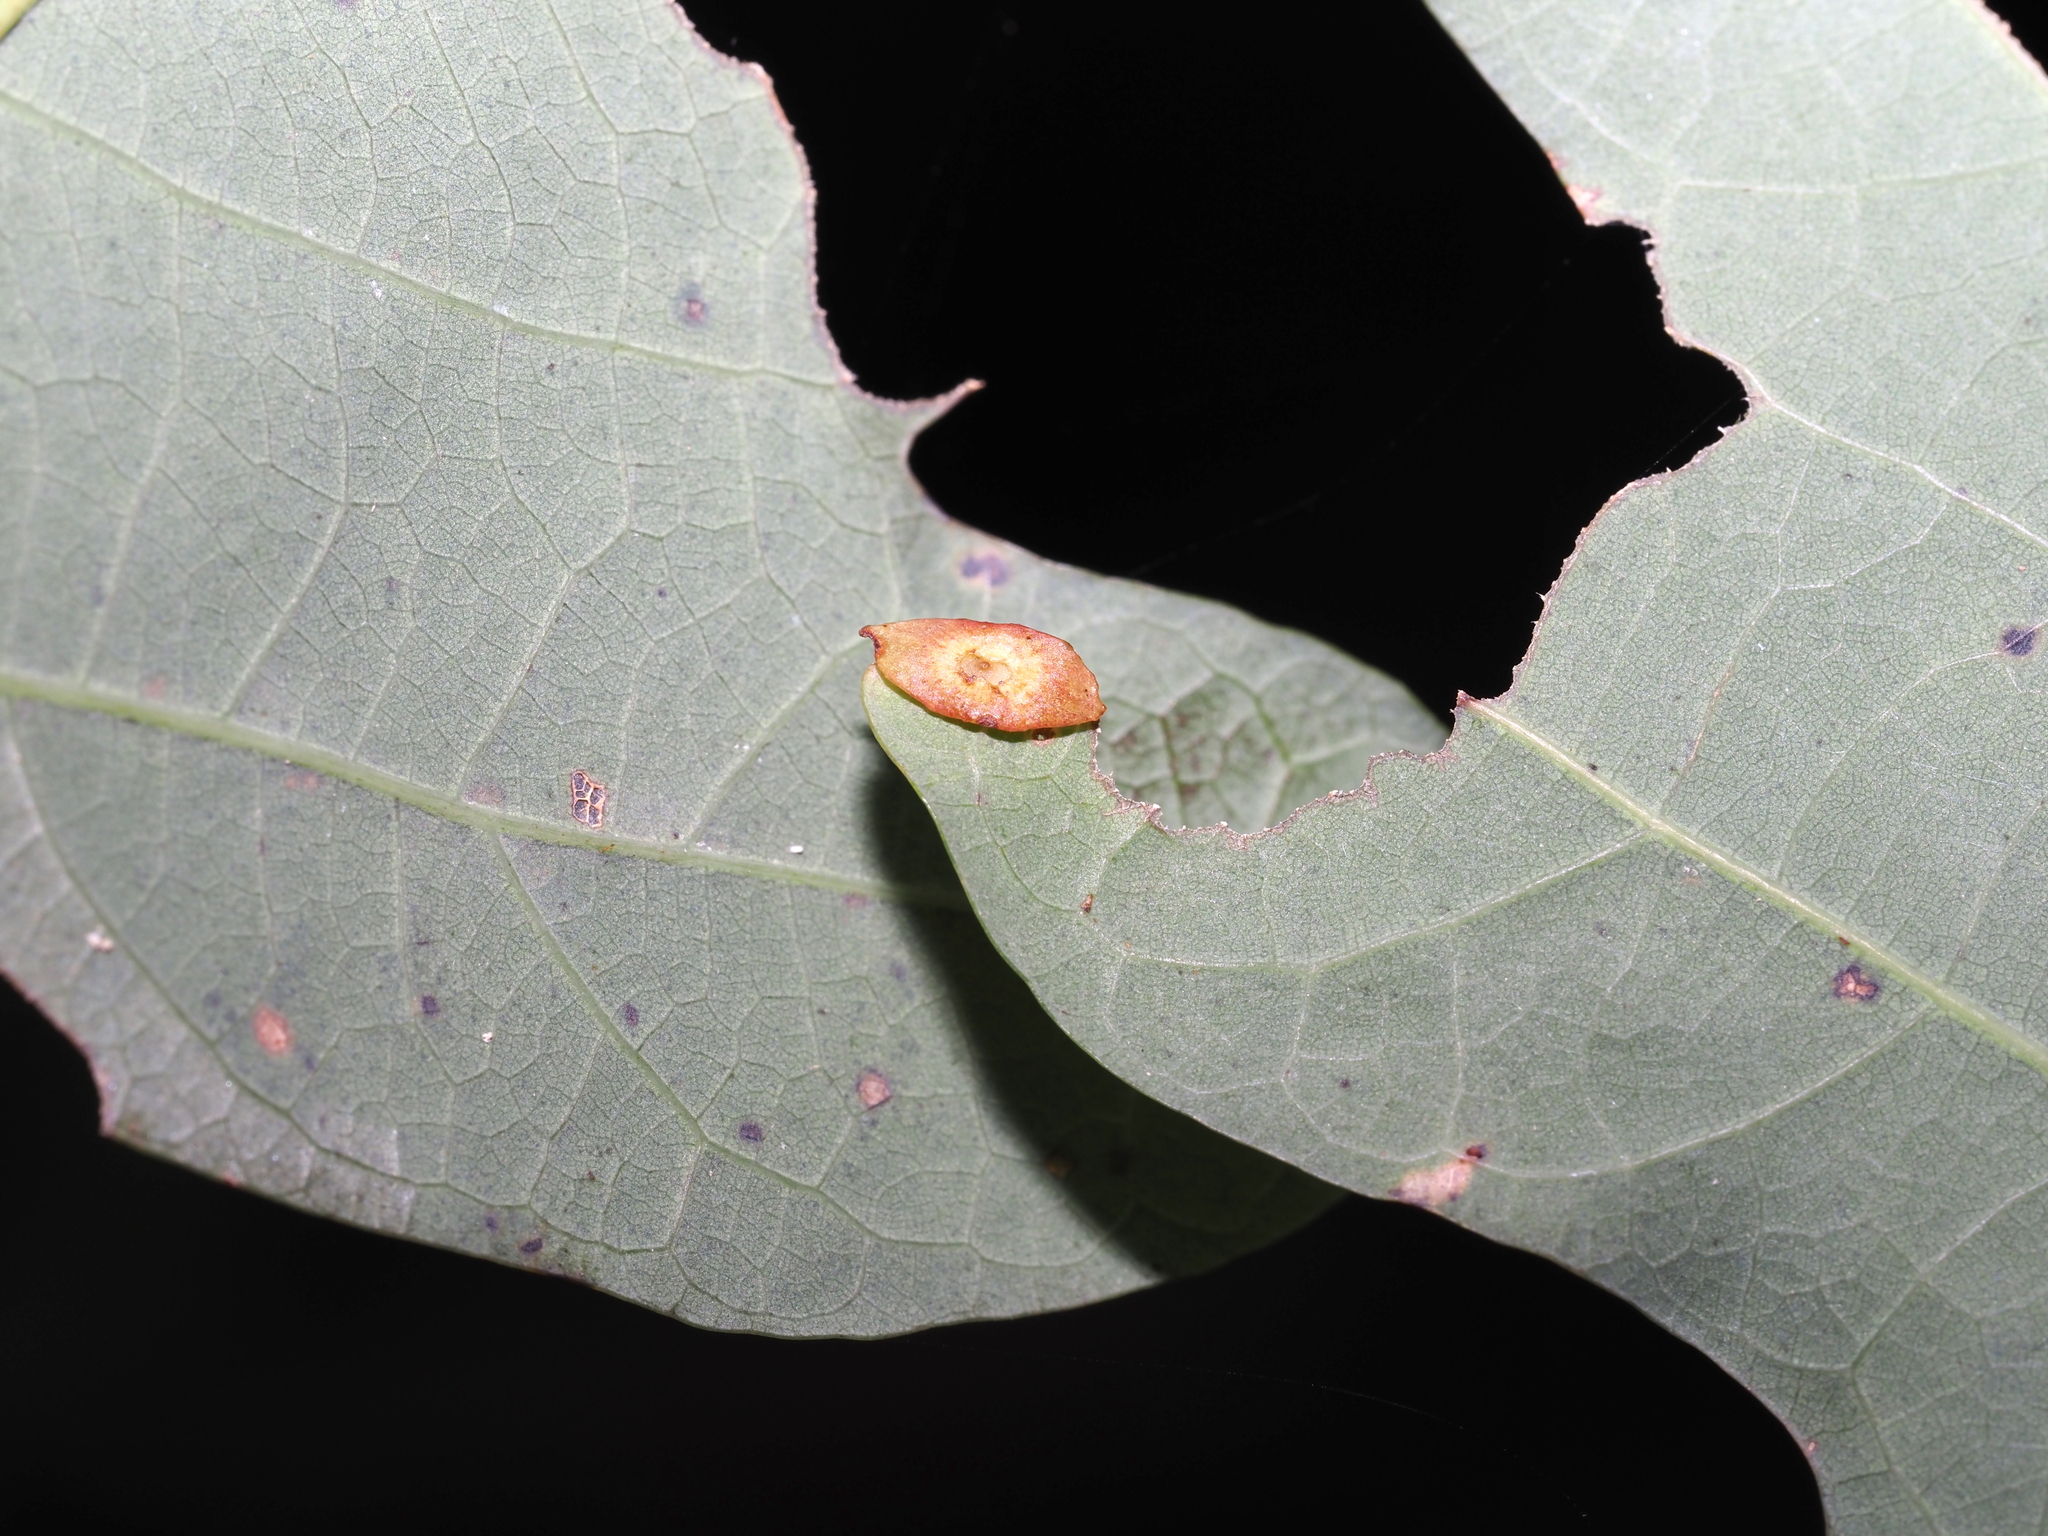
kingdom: Animalia
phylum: Arthropoda
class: Insecta
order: Hymenoptera
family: Cynipidae
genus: Phylloteras
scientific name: Phylloteras
